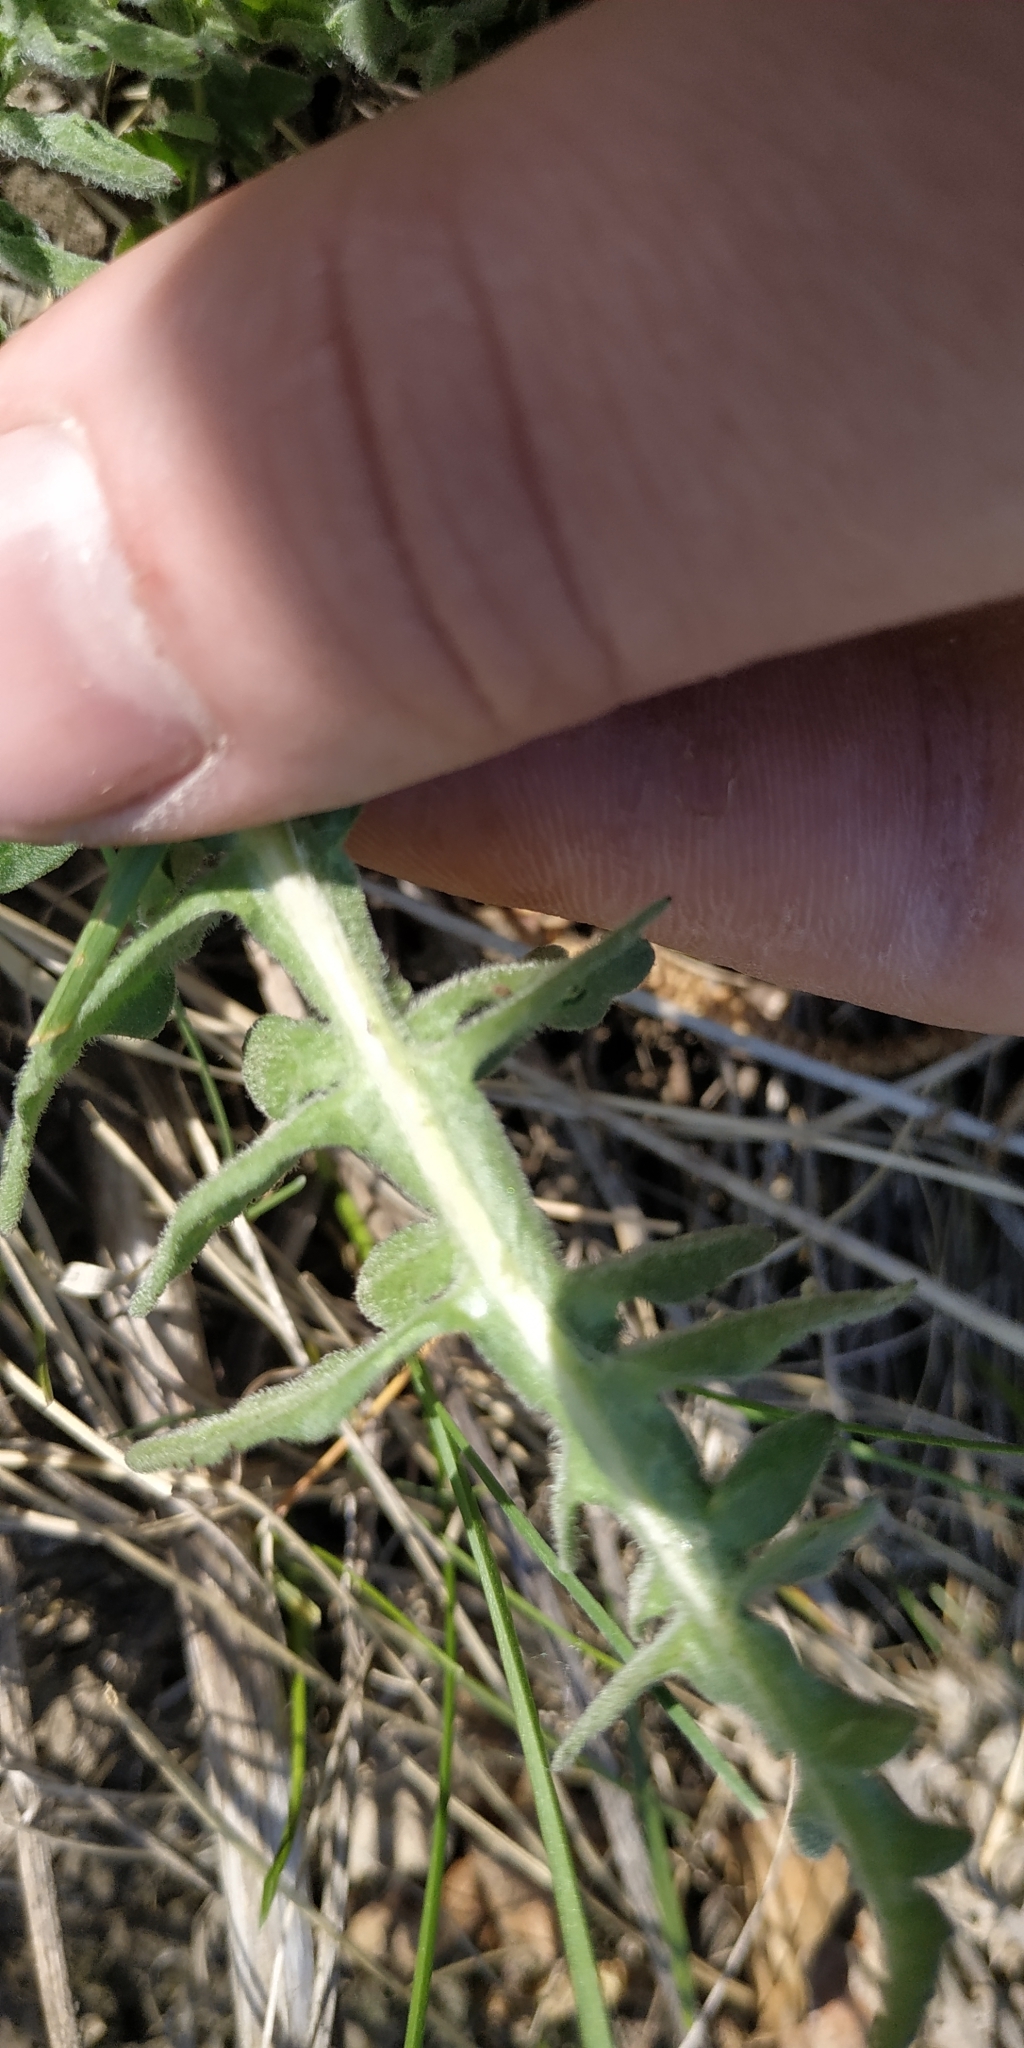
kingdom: Plantae
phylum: Tracheophyta
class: Magnoliopsida
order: Asterales
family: Asteraceae
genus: Centaurea
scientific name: Centaurea scabiosa
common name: Greater knapweed
